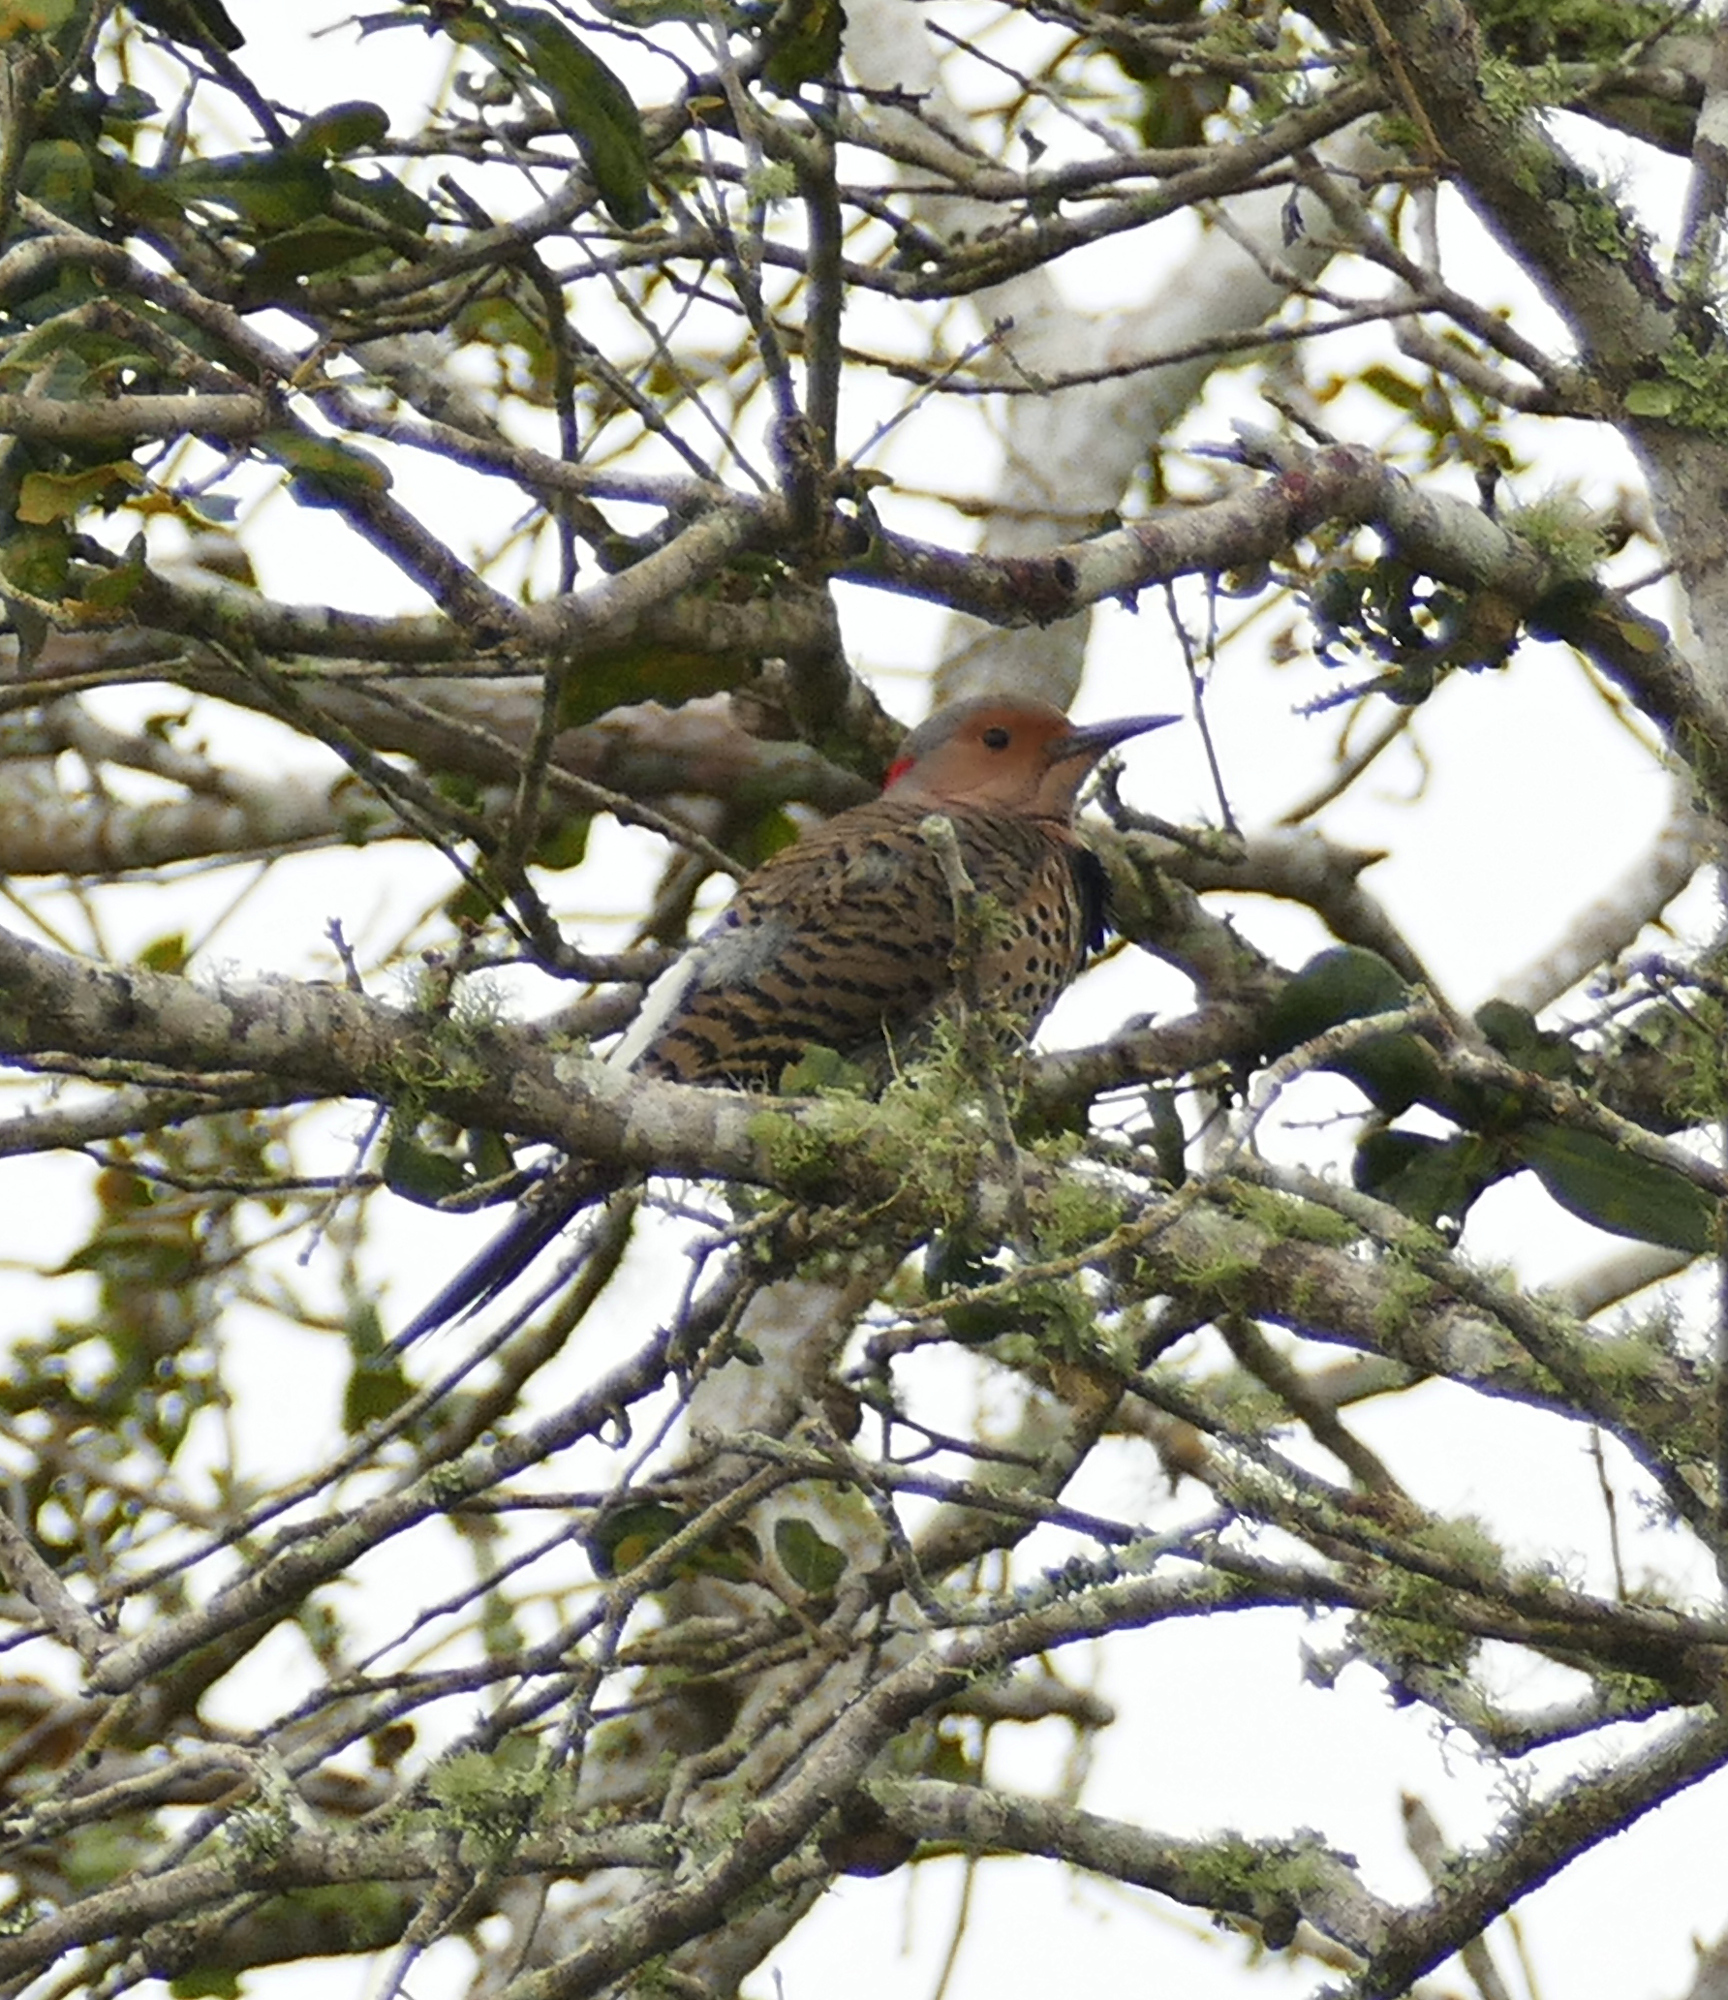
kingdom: Animalia
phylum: Chordata
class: Aves
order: Piciformes
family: Picidae
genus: Colaptes
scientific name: Colaptes auratus
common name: Northern flicker
